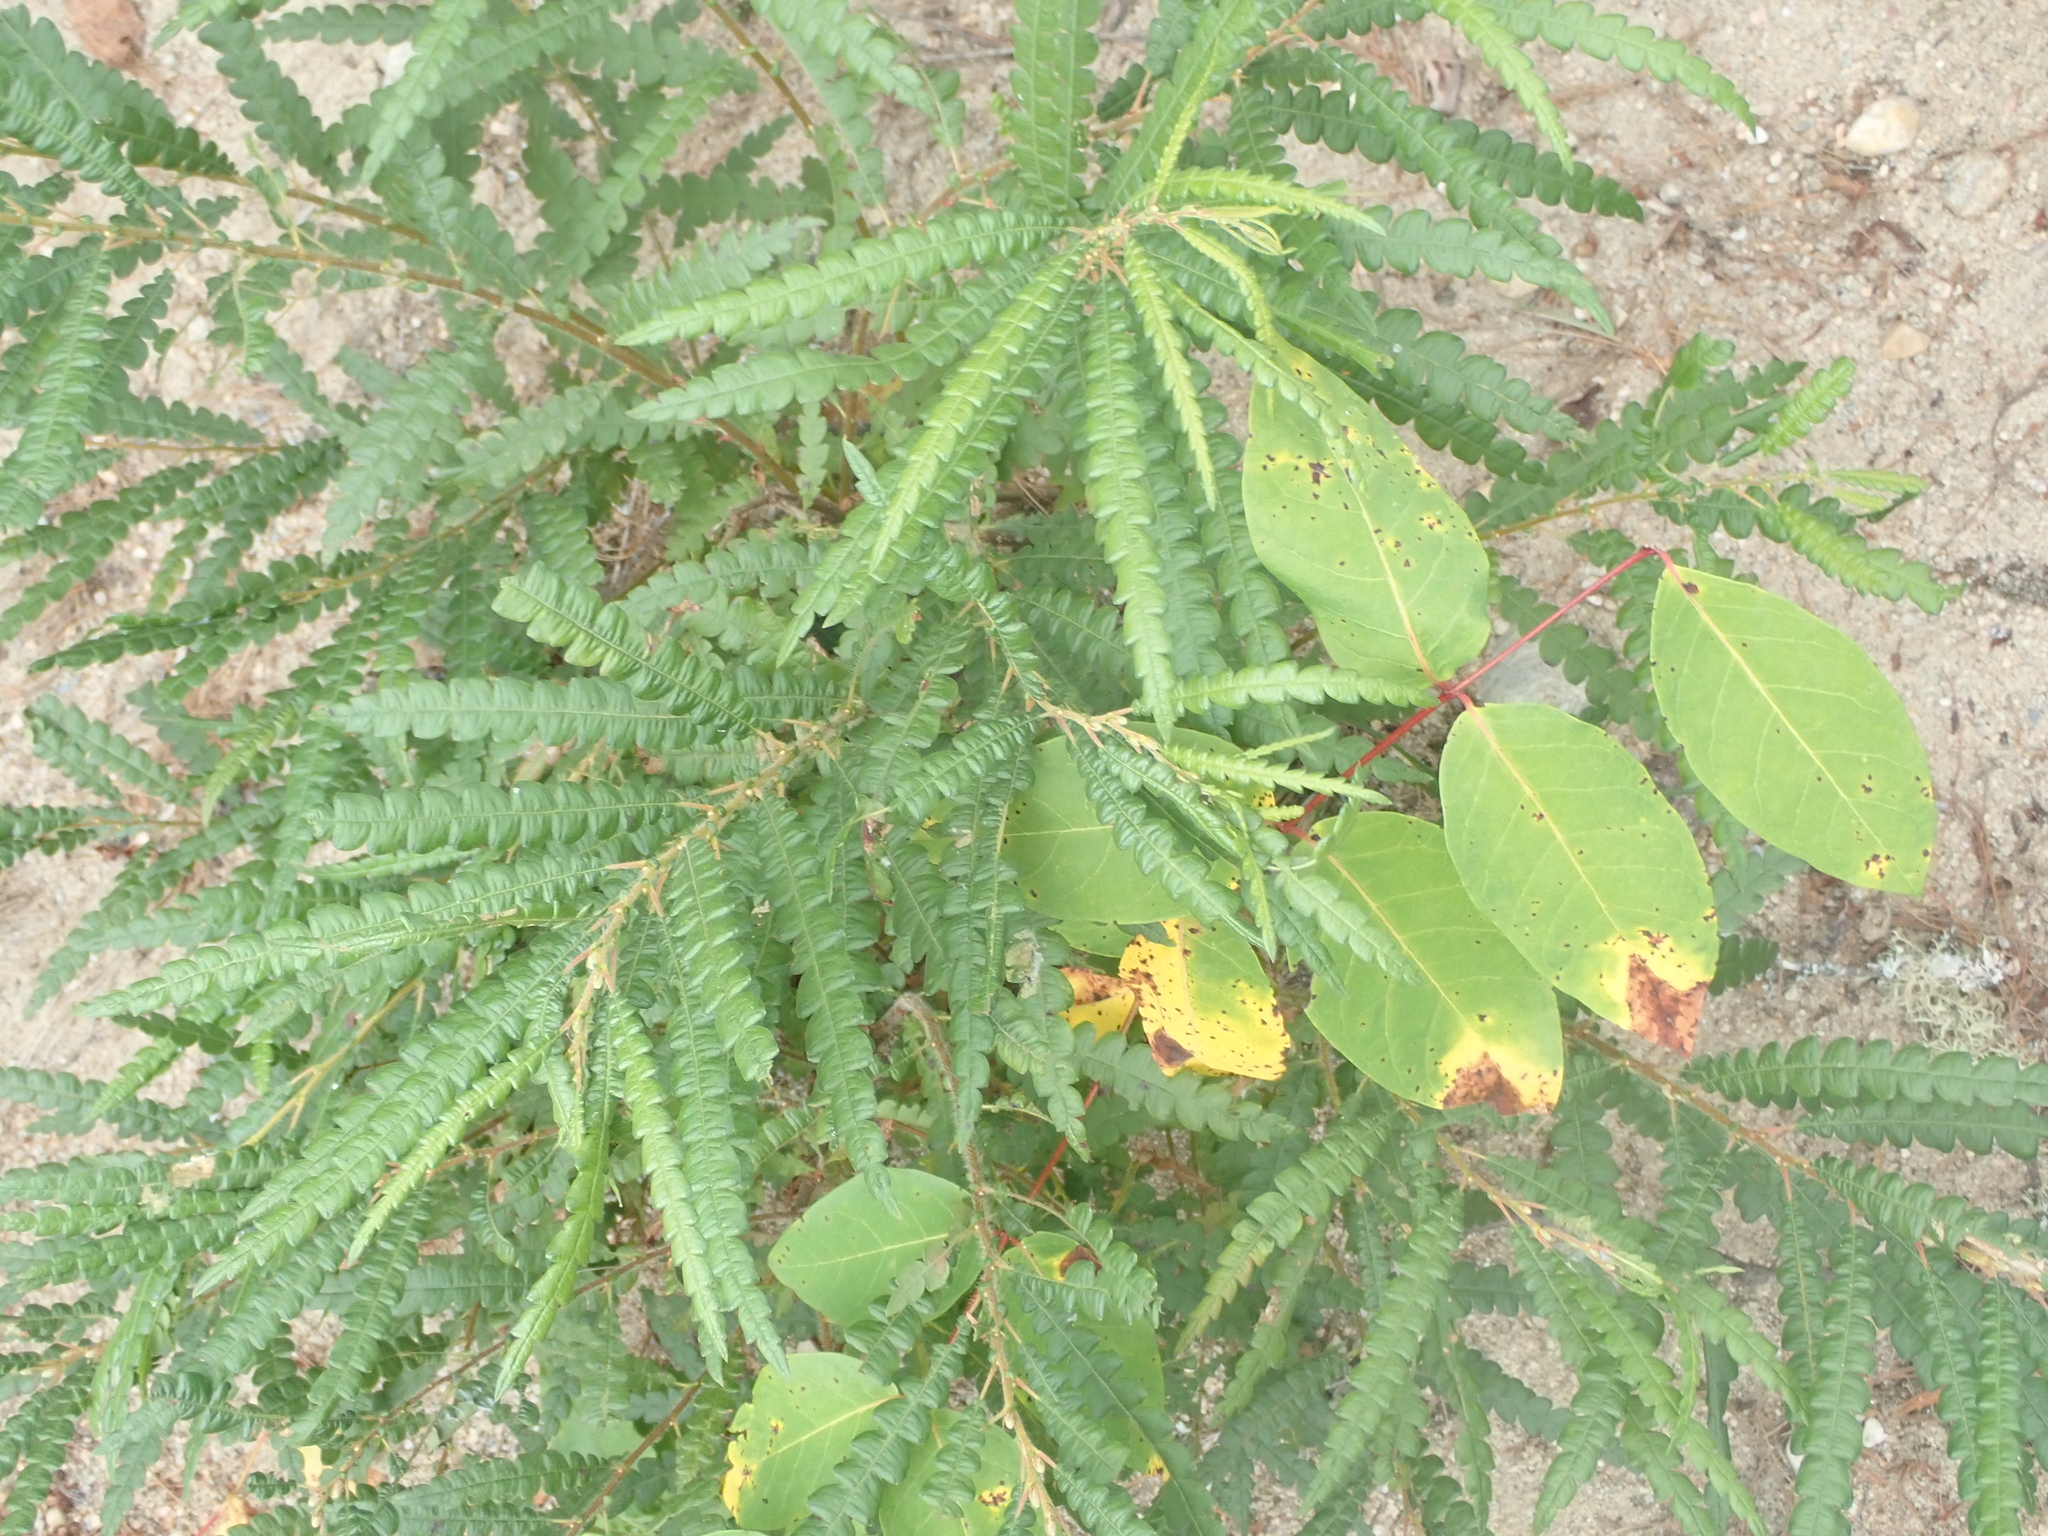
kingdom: Plantae
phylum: Tracheophyta
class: Magnoliopsida
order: Fagales
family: Myricaceae
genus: Comptonia
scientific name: Comptonia peregrina
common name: Sweet-fern
